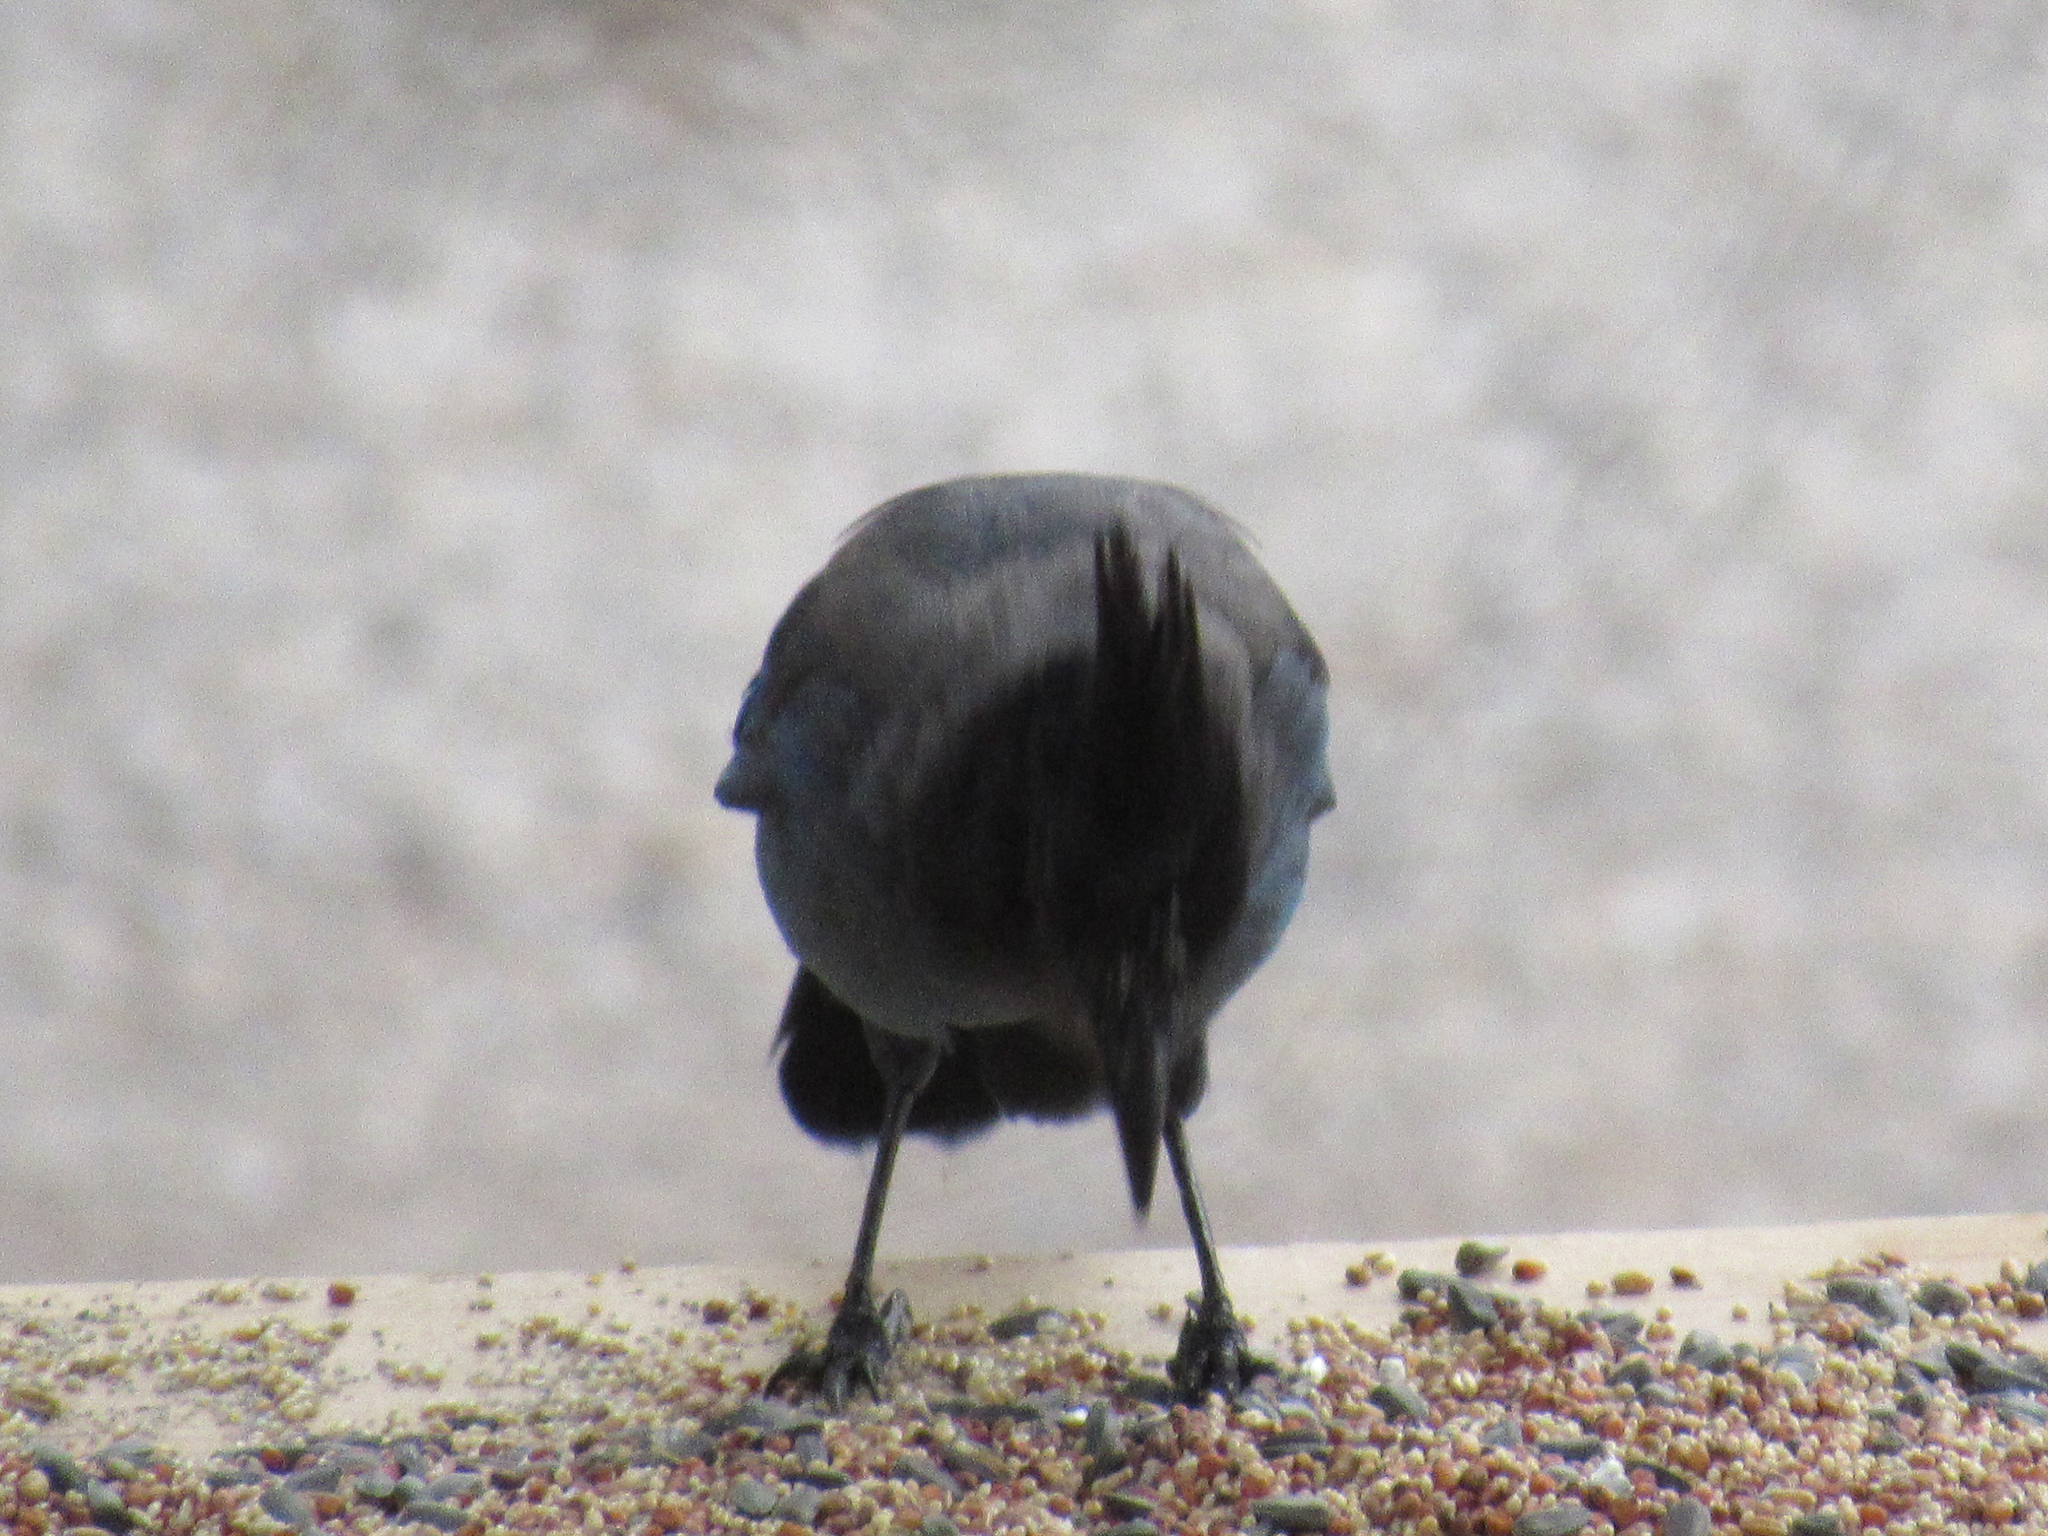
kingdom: Animalia
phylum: Chordata
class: Aves
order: Passeriformes
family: Corvidae
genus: Cyanocitta
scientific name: Cyanocitta stelleri
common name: Steller's jay
